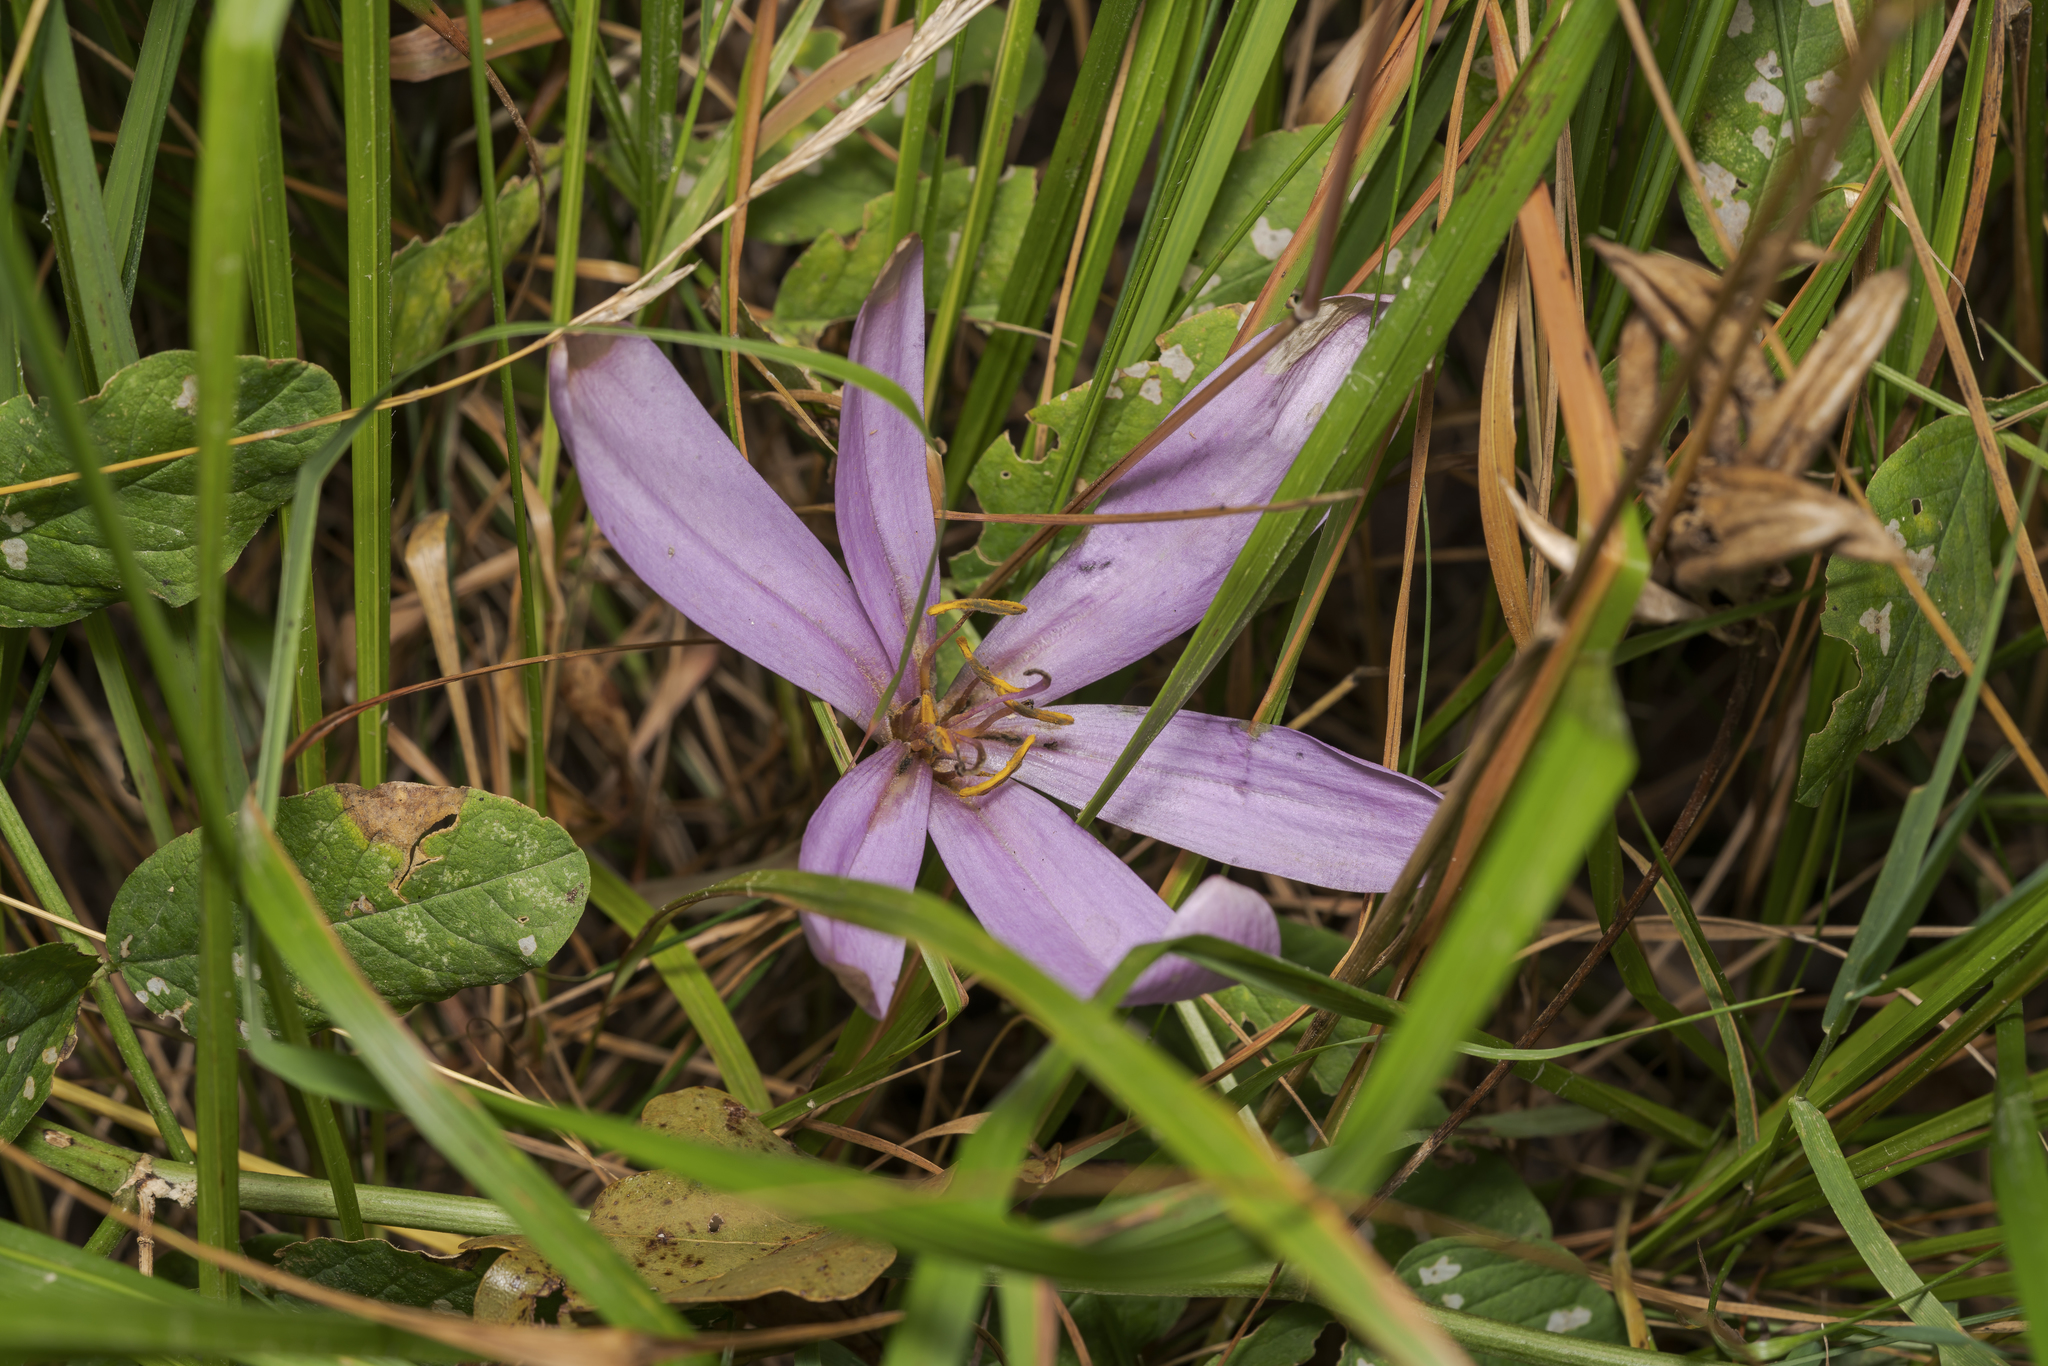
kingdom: Plantae
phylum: Tracheophyta
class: Liliopsida
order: Liliales
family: Colchicaceae
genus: Colchicum
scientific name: Colchicum autumnale
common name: Autumn crocus
